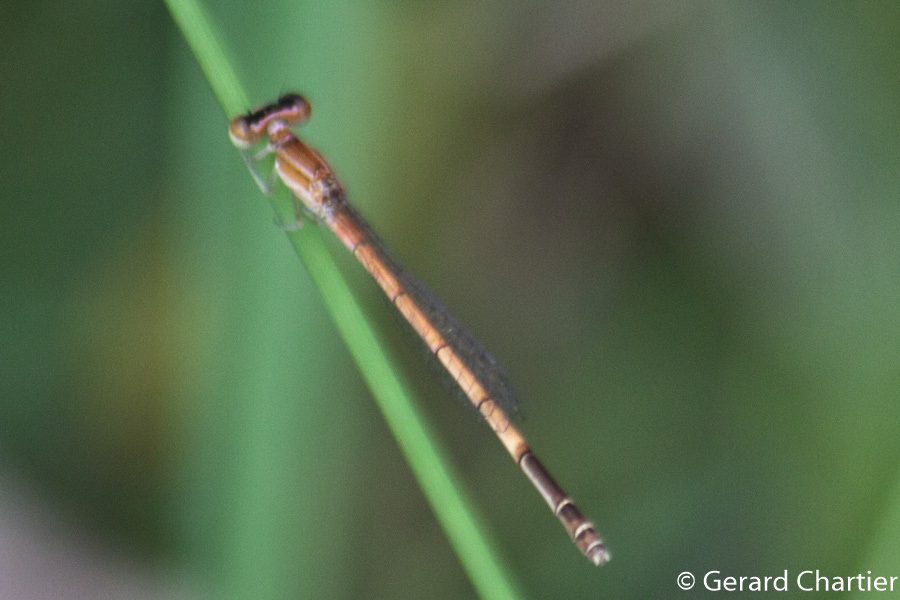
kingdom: Animalia
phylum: Arthropoda
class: Insecta
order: Odonata
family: Coenagrionidae
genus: Agriocnemis
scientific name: Agriocnemis nana
